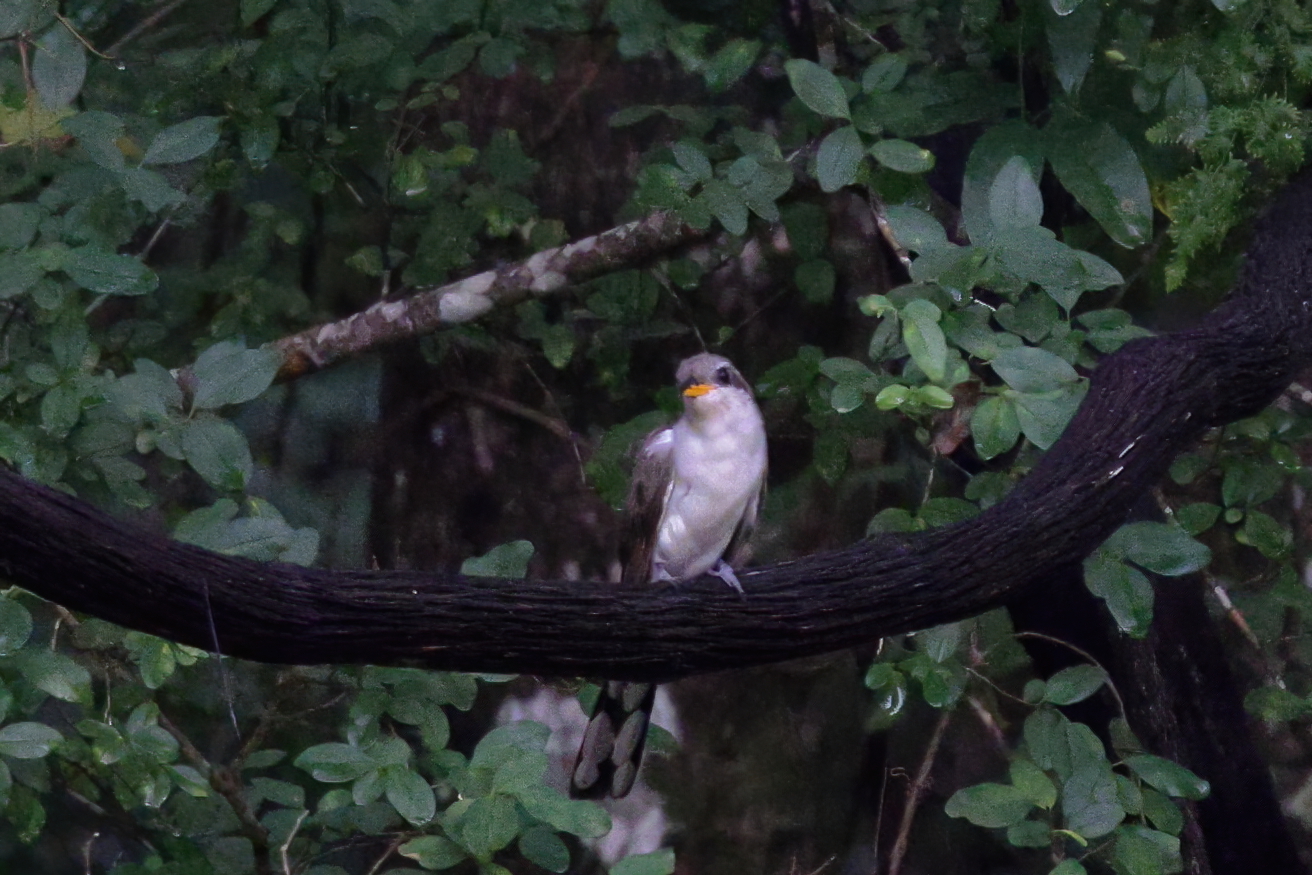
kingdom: Animalia
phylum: Chordata
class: Aves
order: Cuculiformes
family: Cuculidae
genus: Coccyzus
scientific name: Coccyzus americanus
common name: Yellow-billed cuckoo
